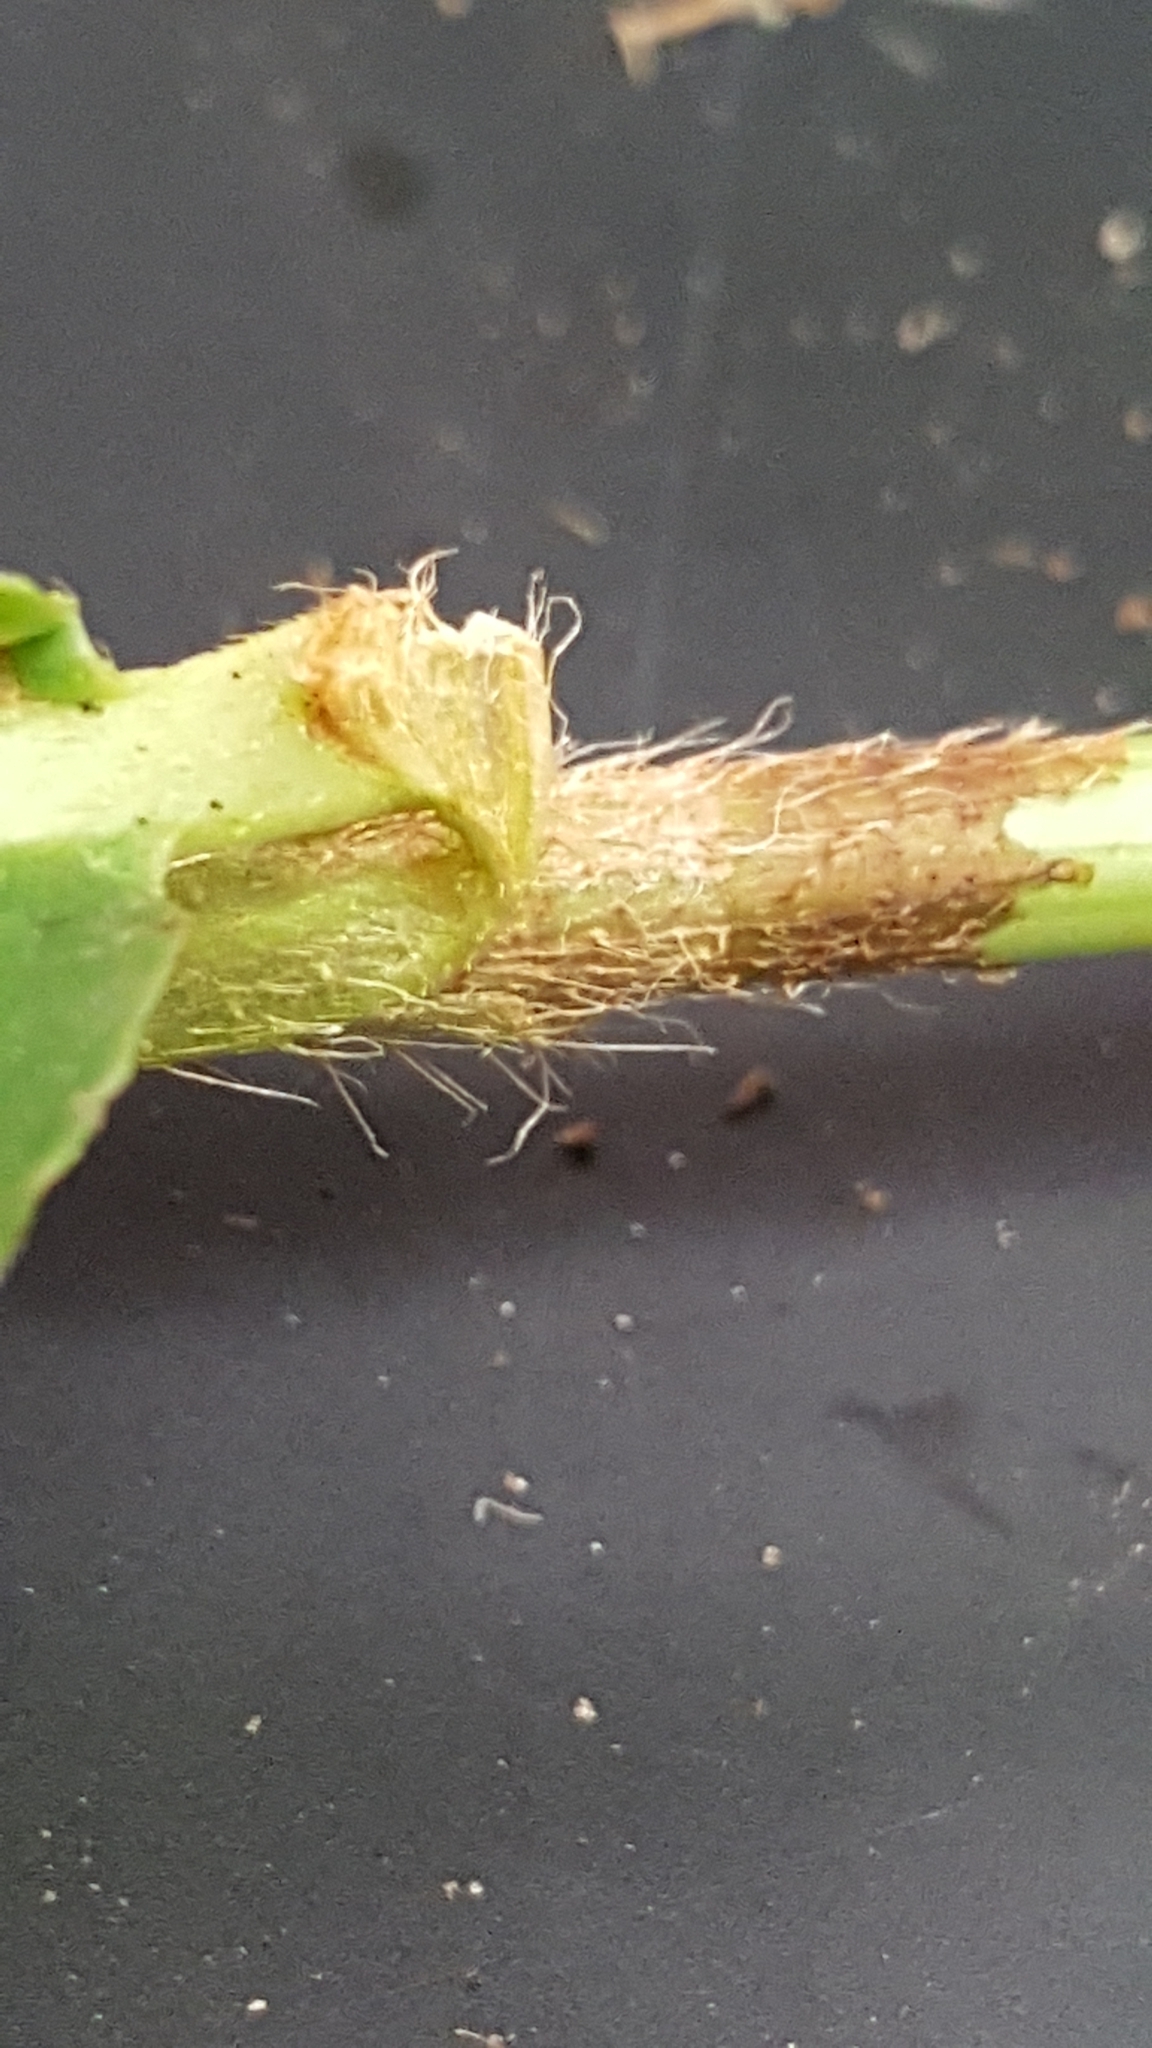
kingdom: Plantae
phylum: Tracheophyta
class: Magnoliopsida
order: Caryophyllales
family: Polygonaceae
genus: Persicaria
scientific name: Persicaria amphibia
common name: Amphibious bistort
